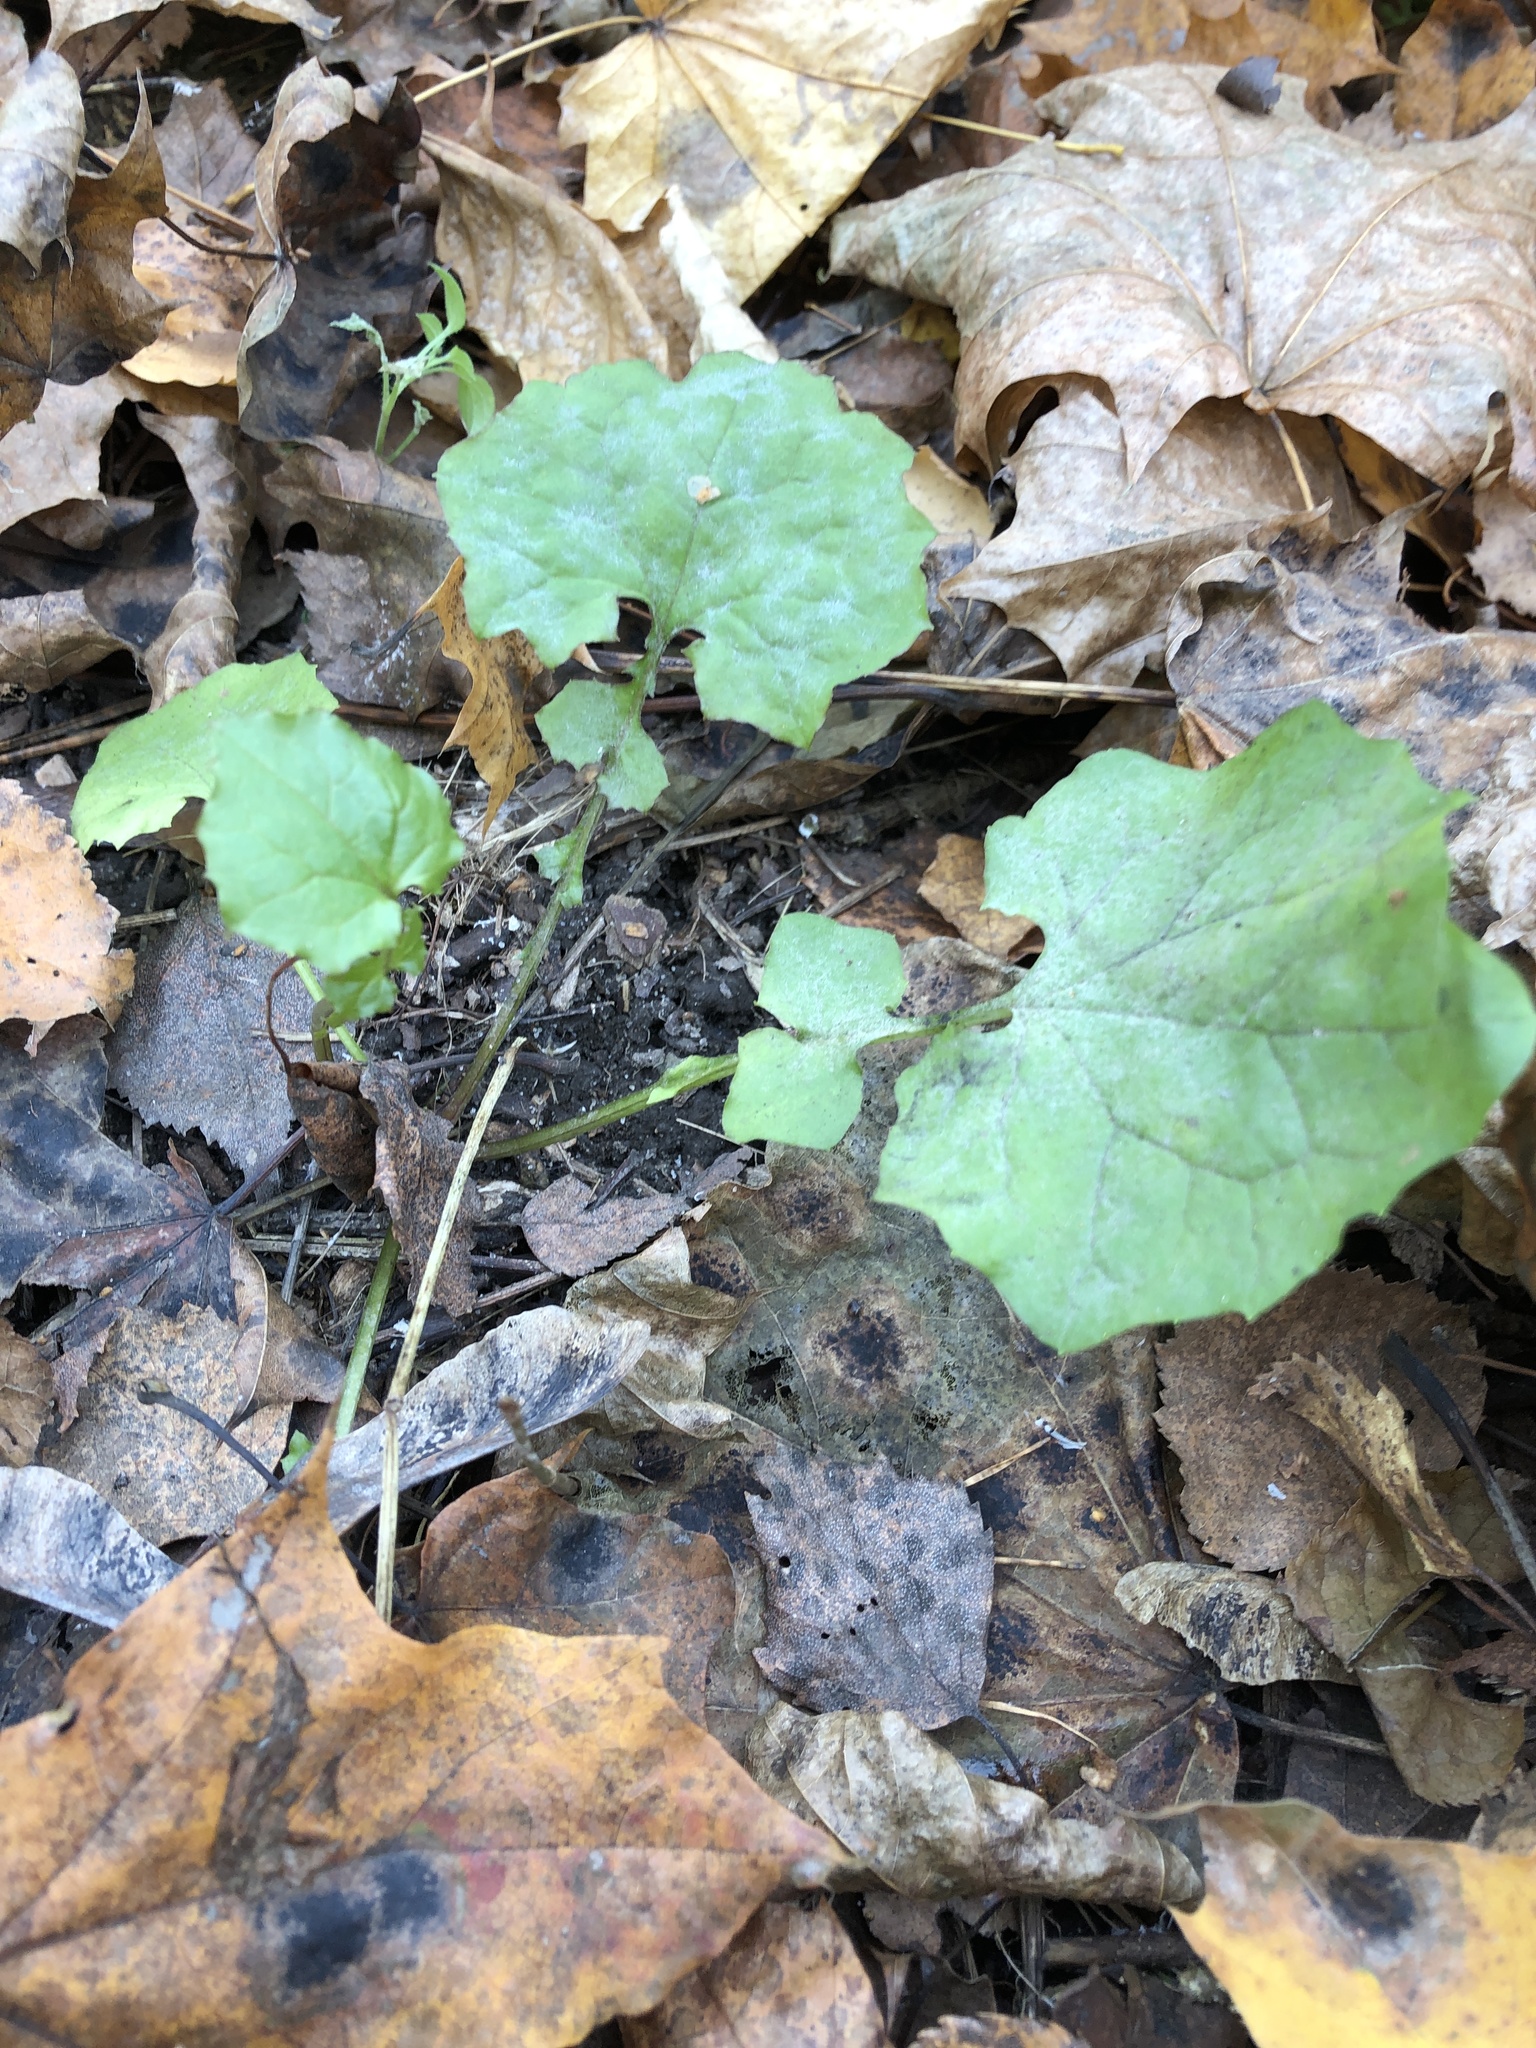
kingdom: Plantae
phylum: Tracheophyta
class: Magnoliopsida
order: Asterales
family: Asteraceae
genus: Mycelis
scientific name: Mycelis muralis
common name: Wall lettuce
